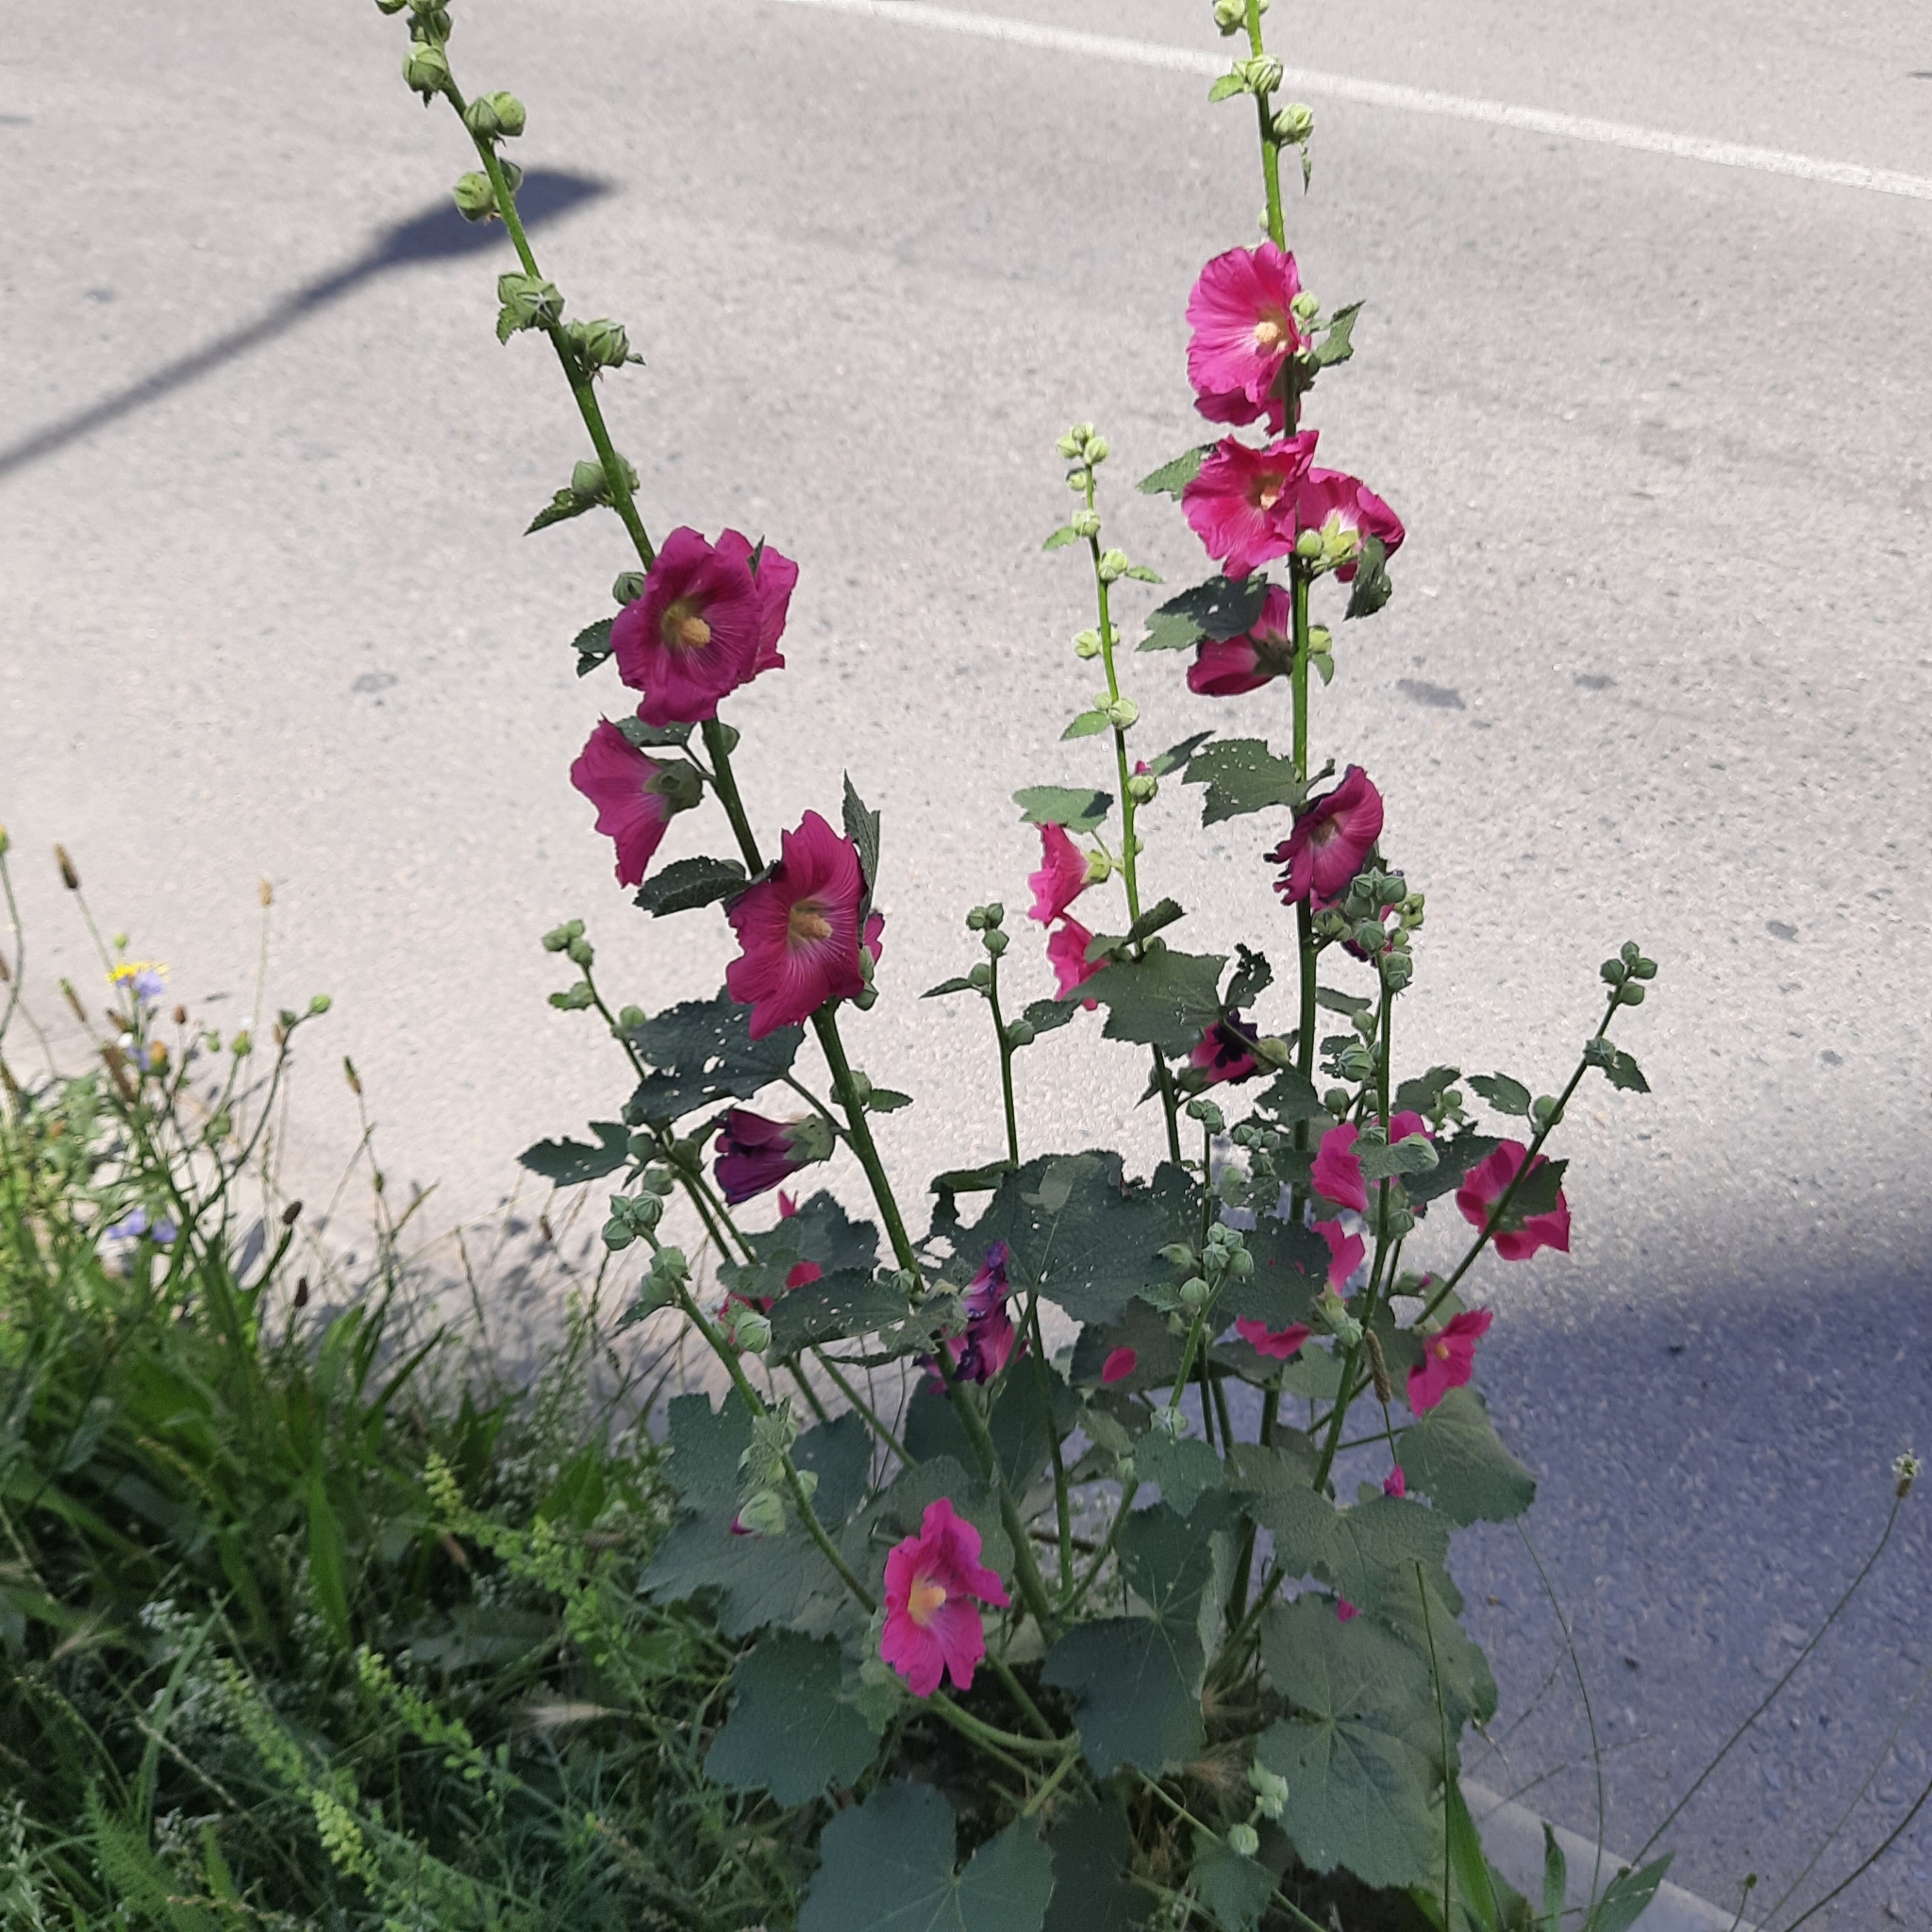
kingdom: Plantae
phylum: Tracheophyta
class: Magnoliopsida
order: Malvales
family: Malvaceae
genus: Alcea
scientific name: Alcea rosea
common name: Hollyhock
